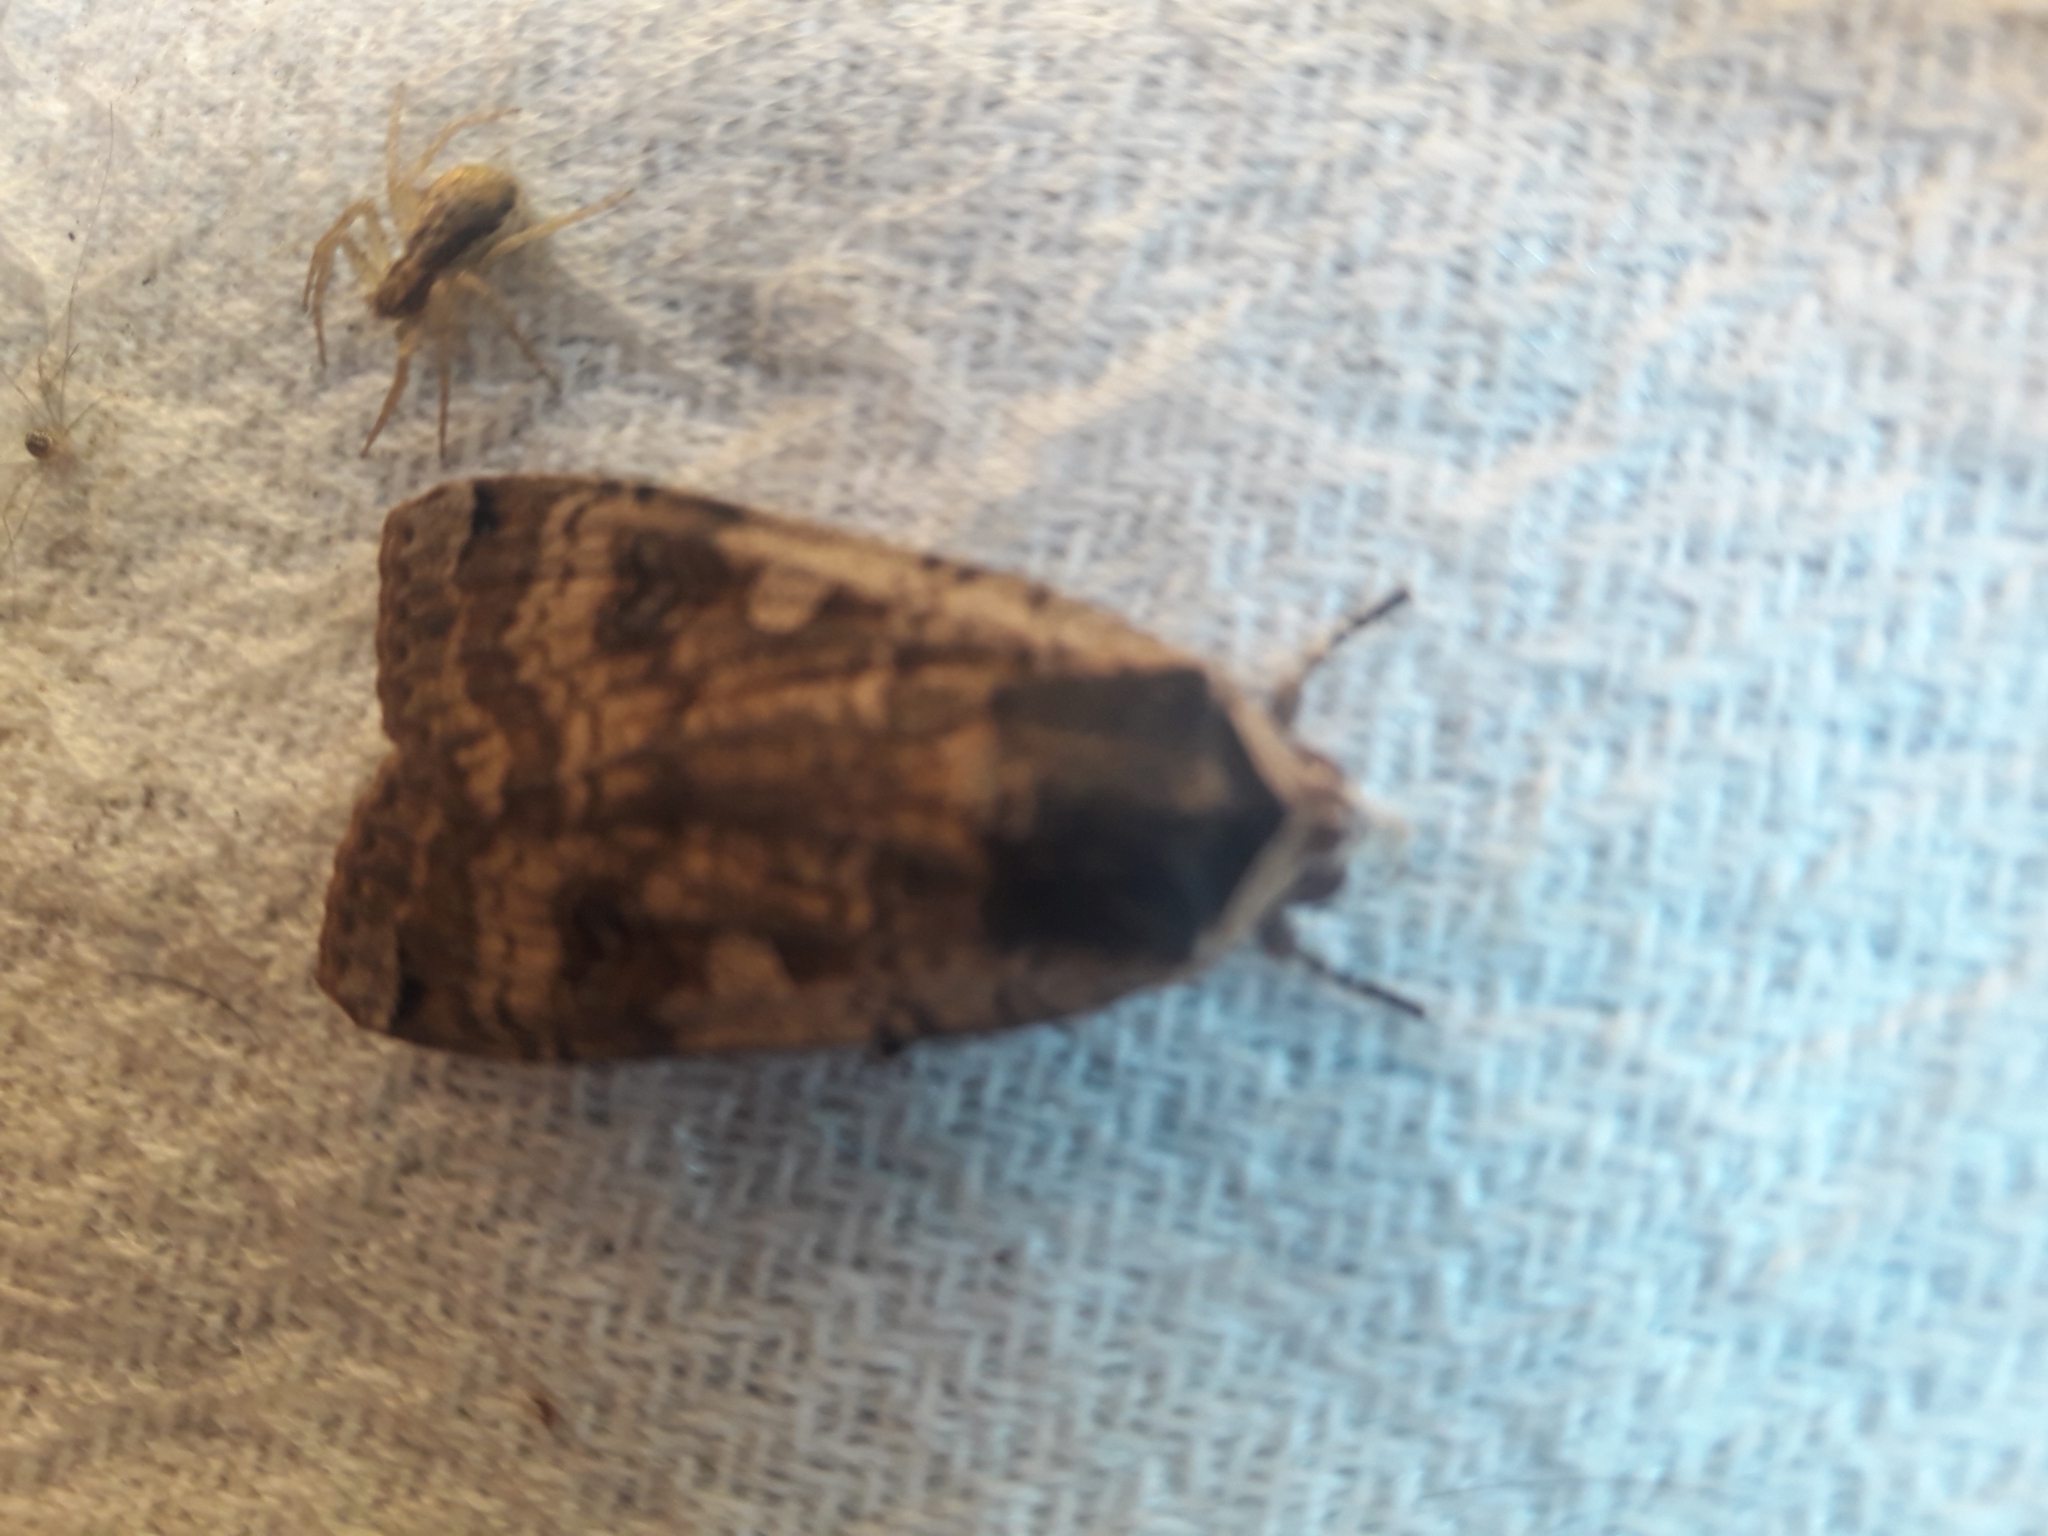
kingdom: Animalia
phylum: Arthropoda
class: Insecta
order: Lepidoptera
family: Noctuidae
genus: Noctua
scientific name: Noctua pronuba
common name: Large yellow underwing
